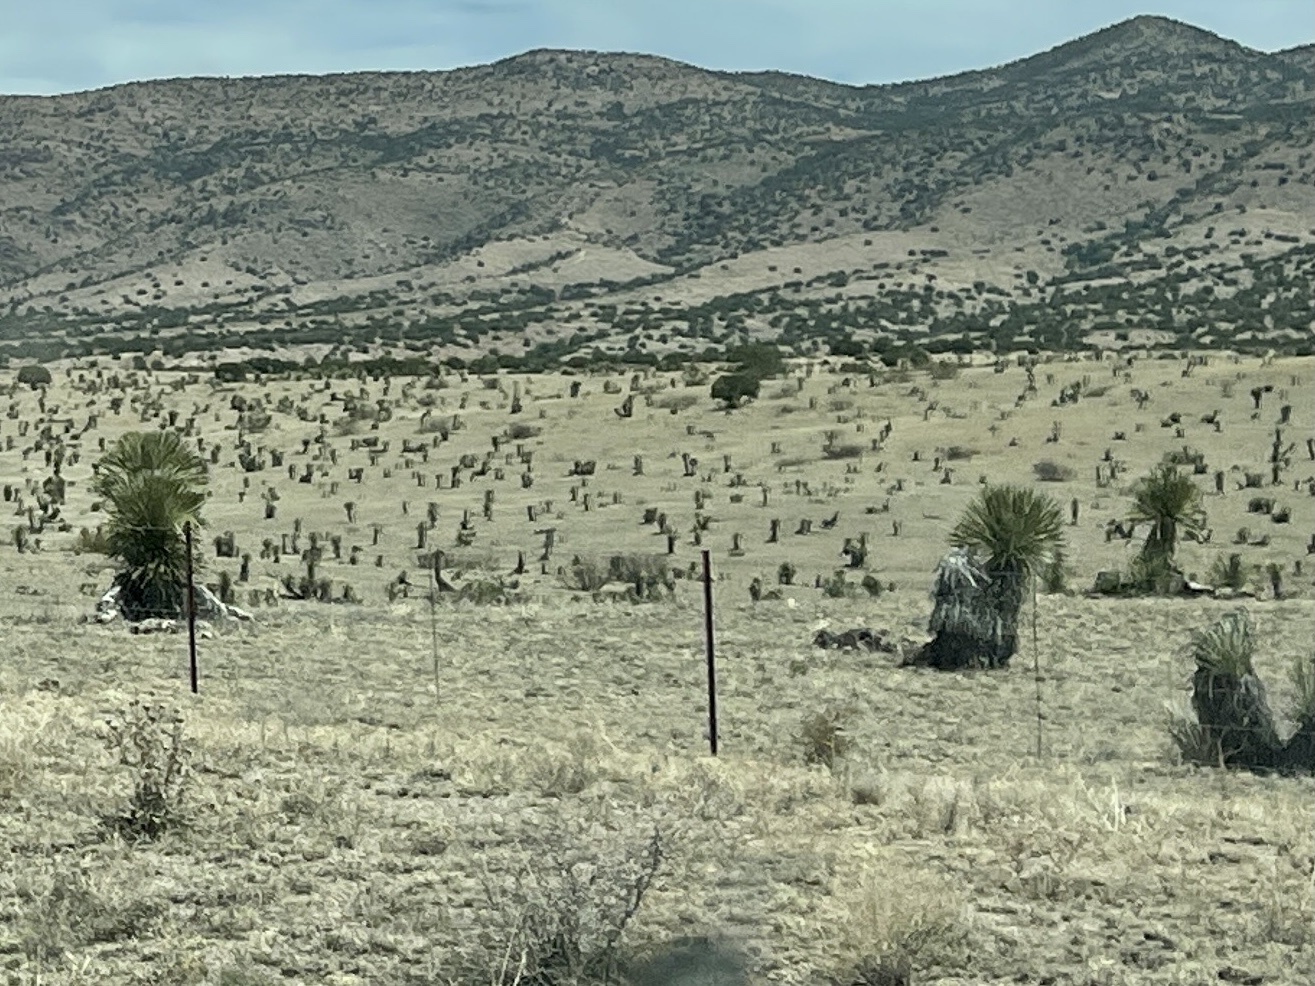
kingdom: Plantae
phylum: Tracheophyta
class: Liliopsida
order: Asparagales
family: Asparagaceae
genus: Yucca
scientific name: Yucca elata
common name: Palmella
